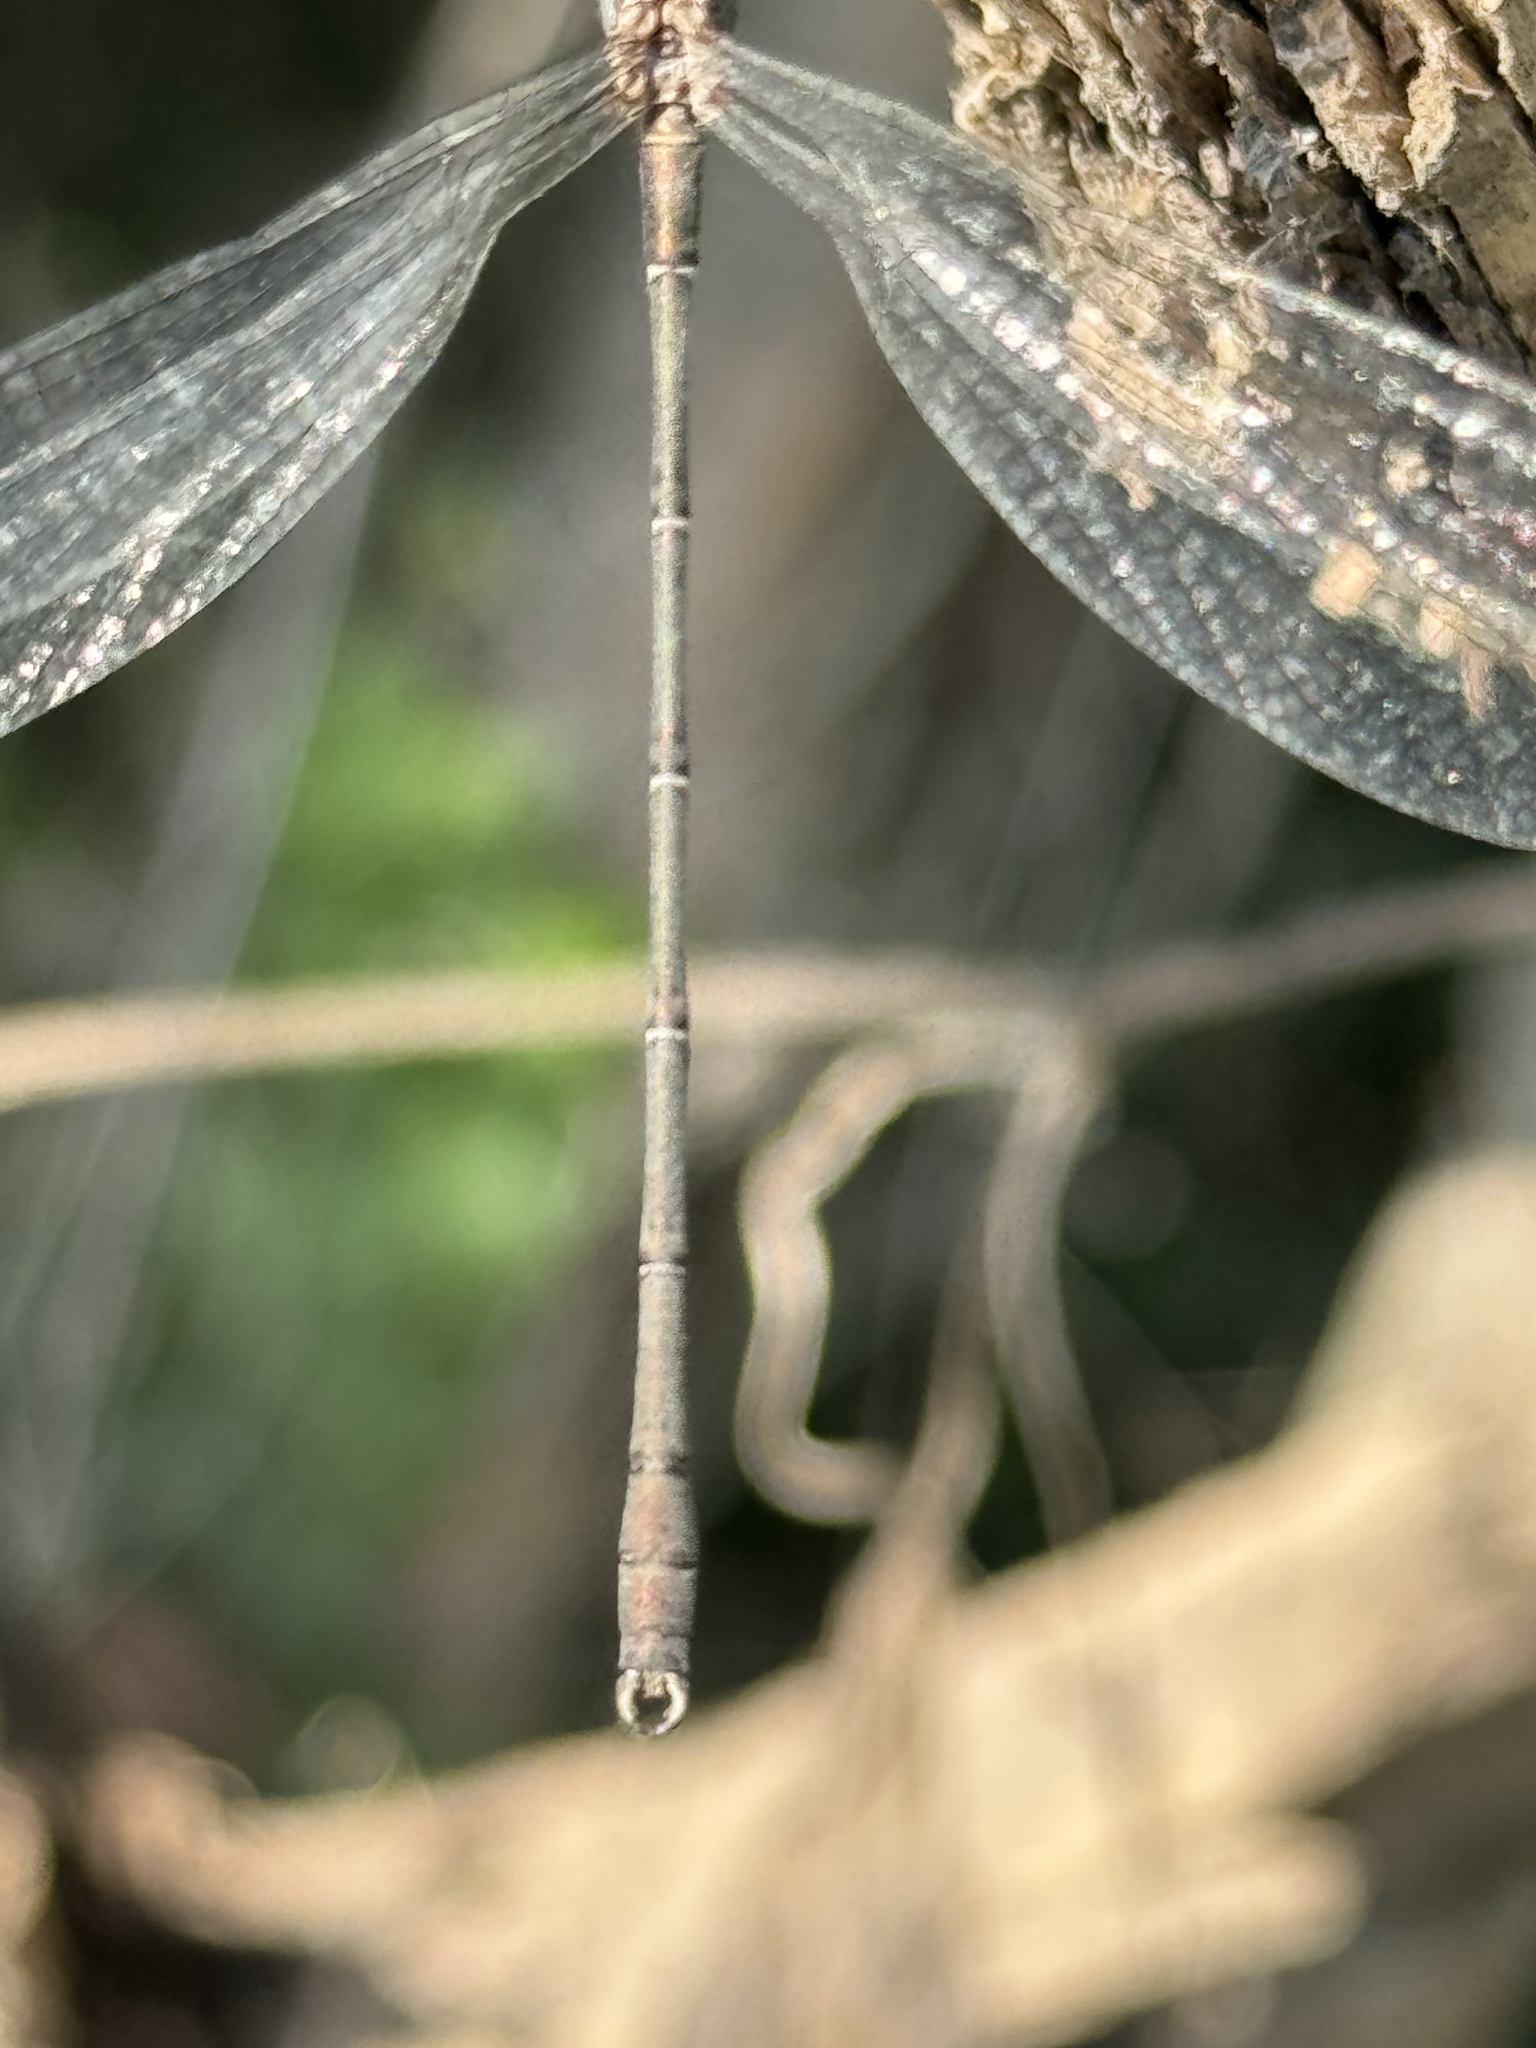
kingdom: Animalia
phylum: Arthropoda
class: Insecta
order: Odonata
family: Lestidae
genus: Chalcolestes
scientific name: Chalcolestes viridis
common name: Green emerald damselfly
